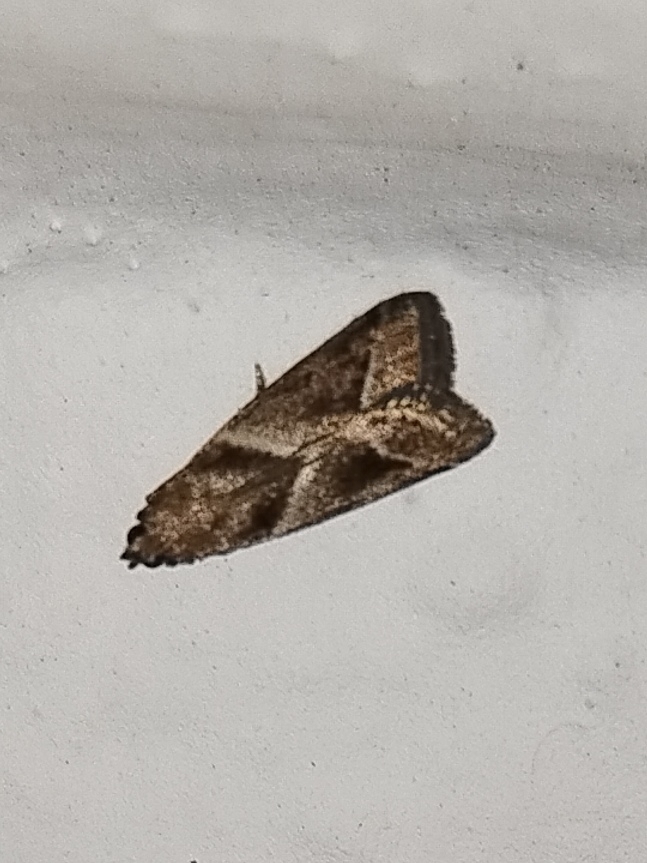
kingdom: Animalia
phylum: Arthropoda
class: Insecta
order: Lepidoptera
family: Pyralidae
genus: Nyctegretis
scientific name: Nyctegretis lineana
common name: Agate knot-horn
